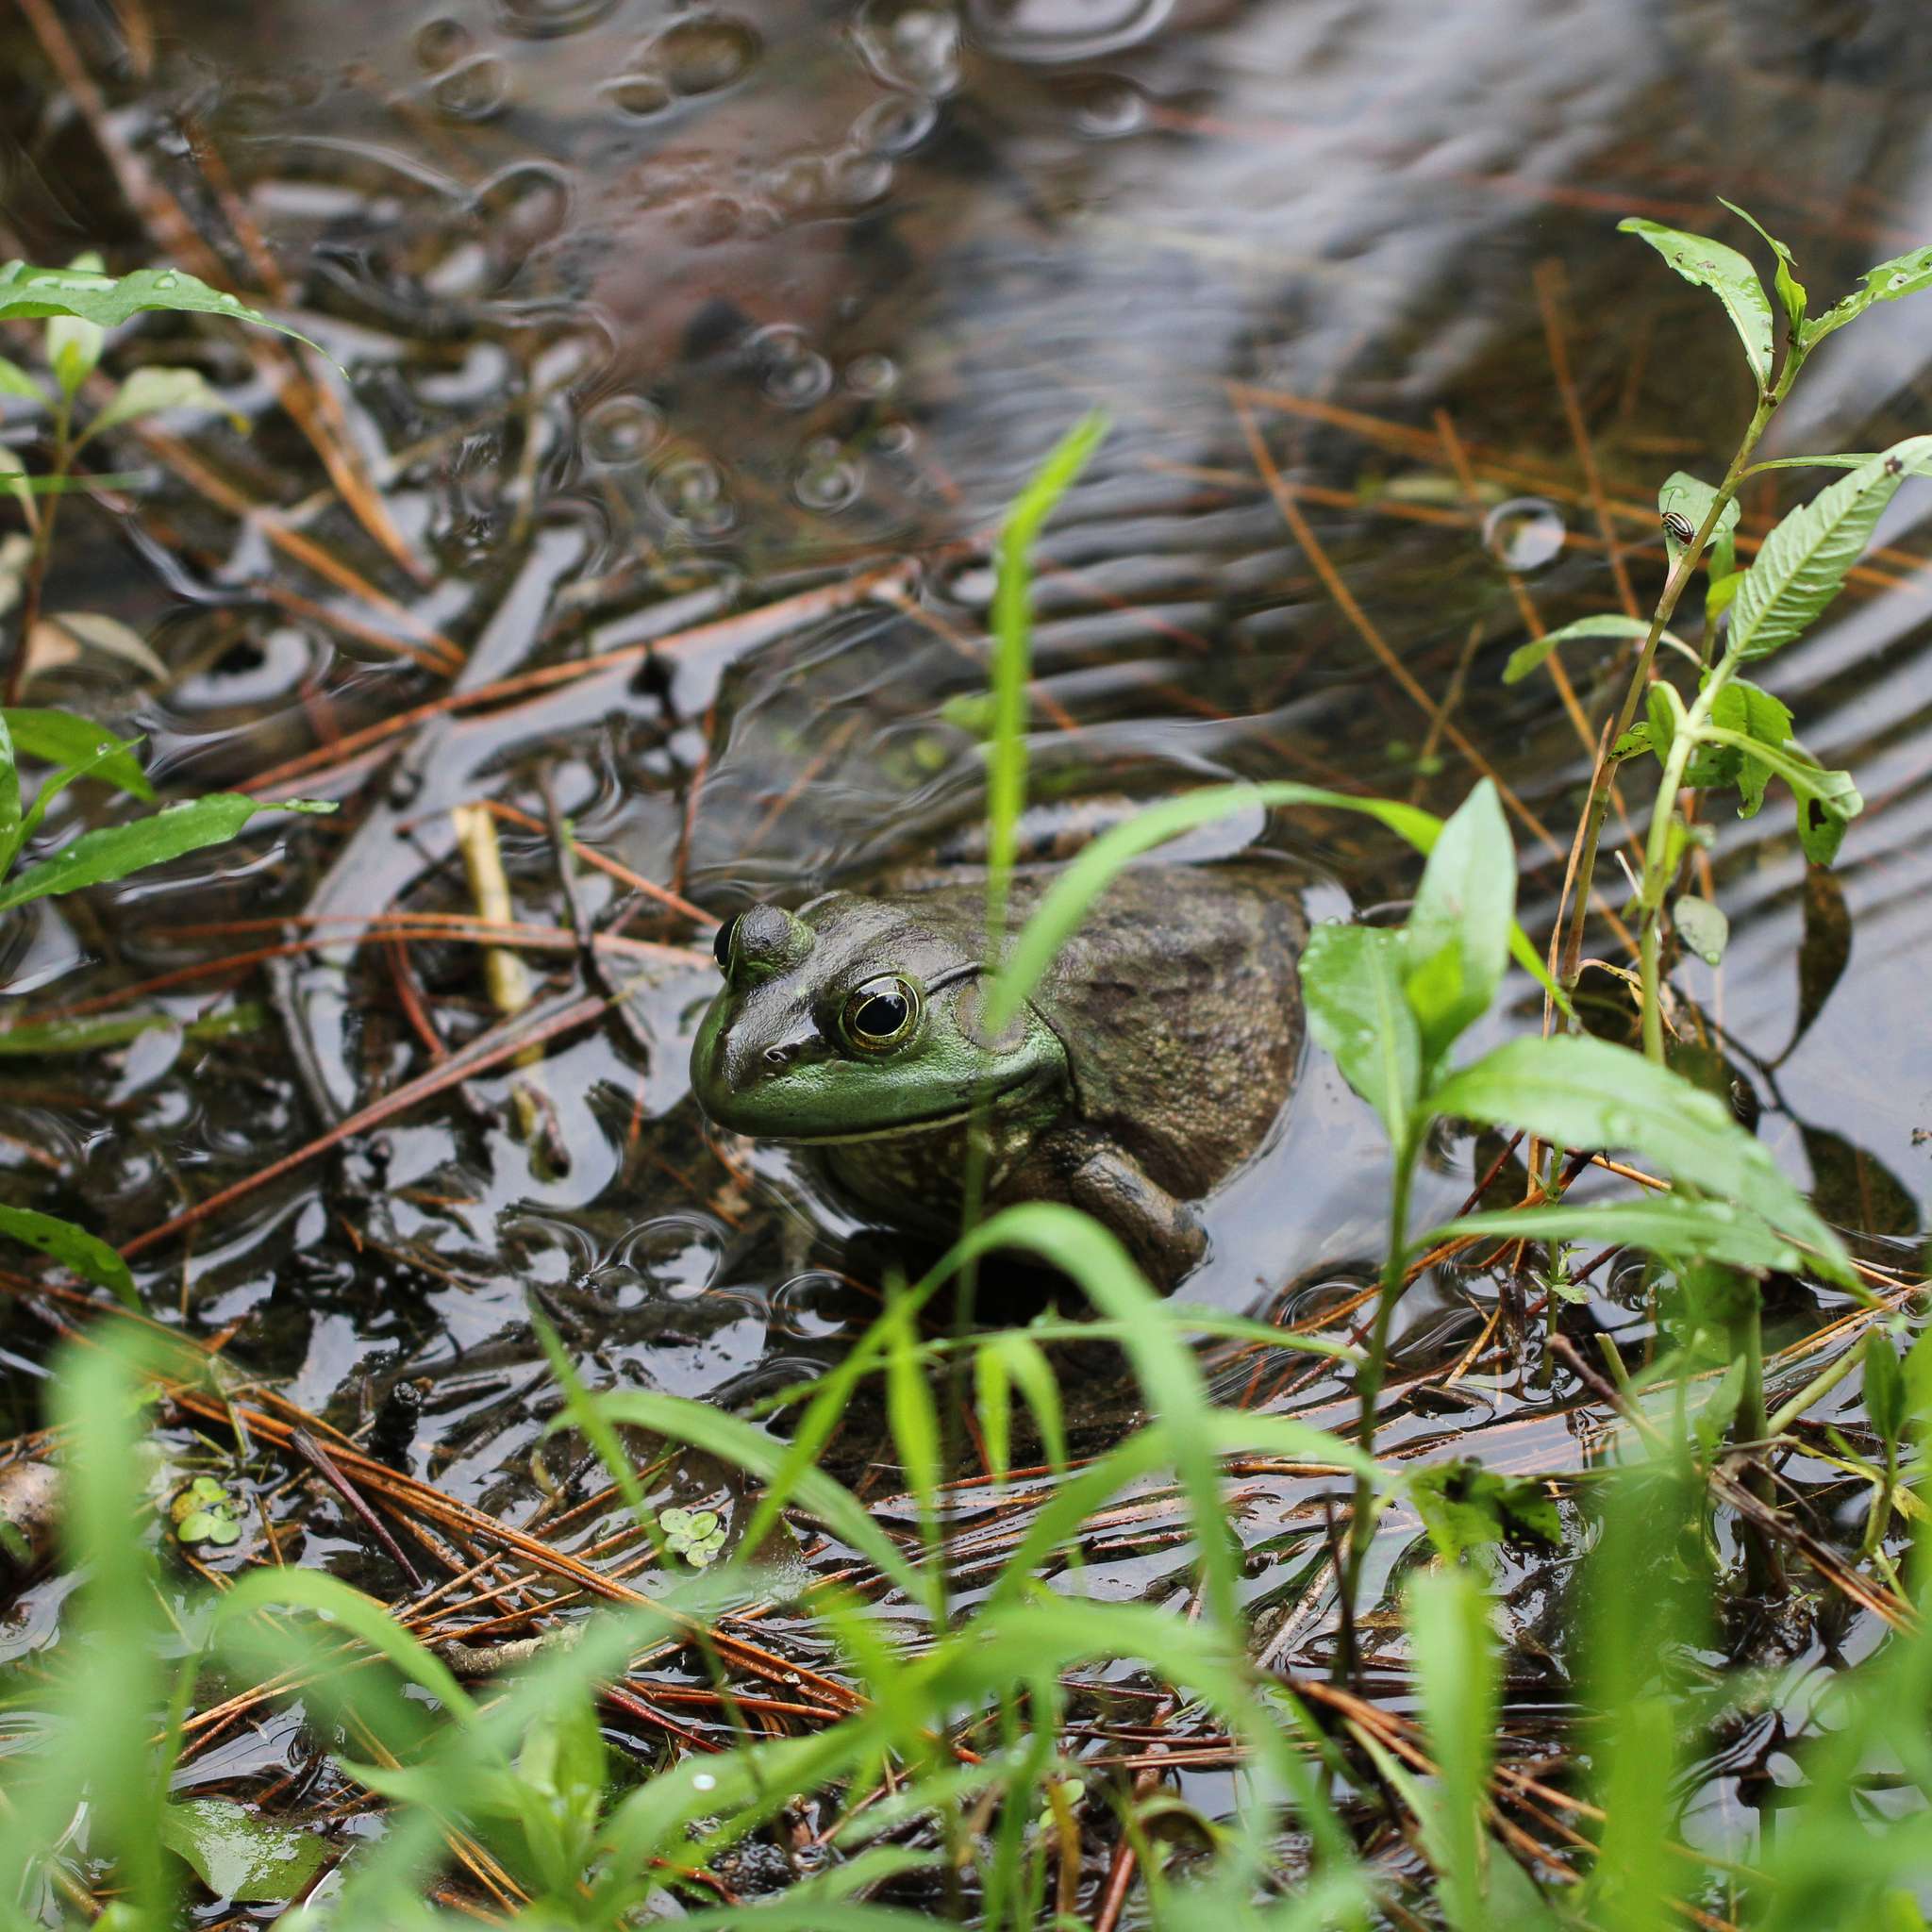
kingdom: Animalia
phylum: Chordata
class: Amphibia
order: Anura
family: Ranidae
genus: Lithobates
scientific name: Lithobates catesbeianus
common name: American bullfrog
